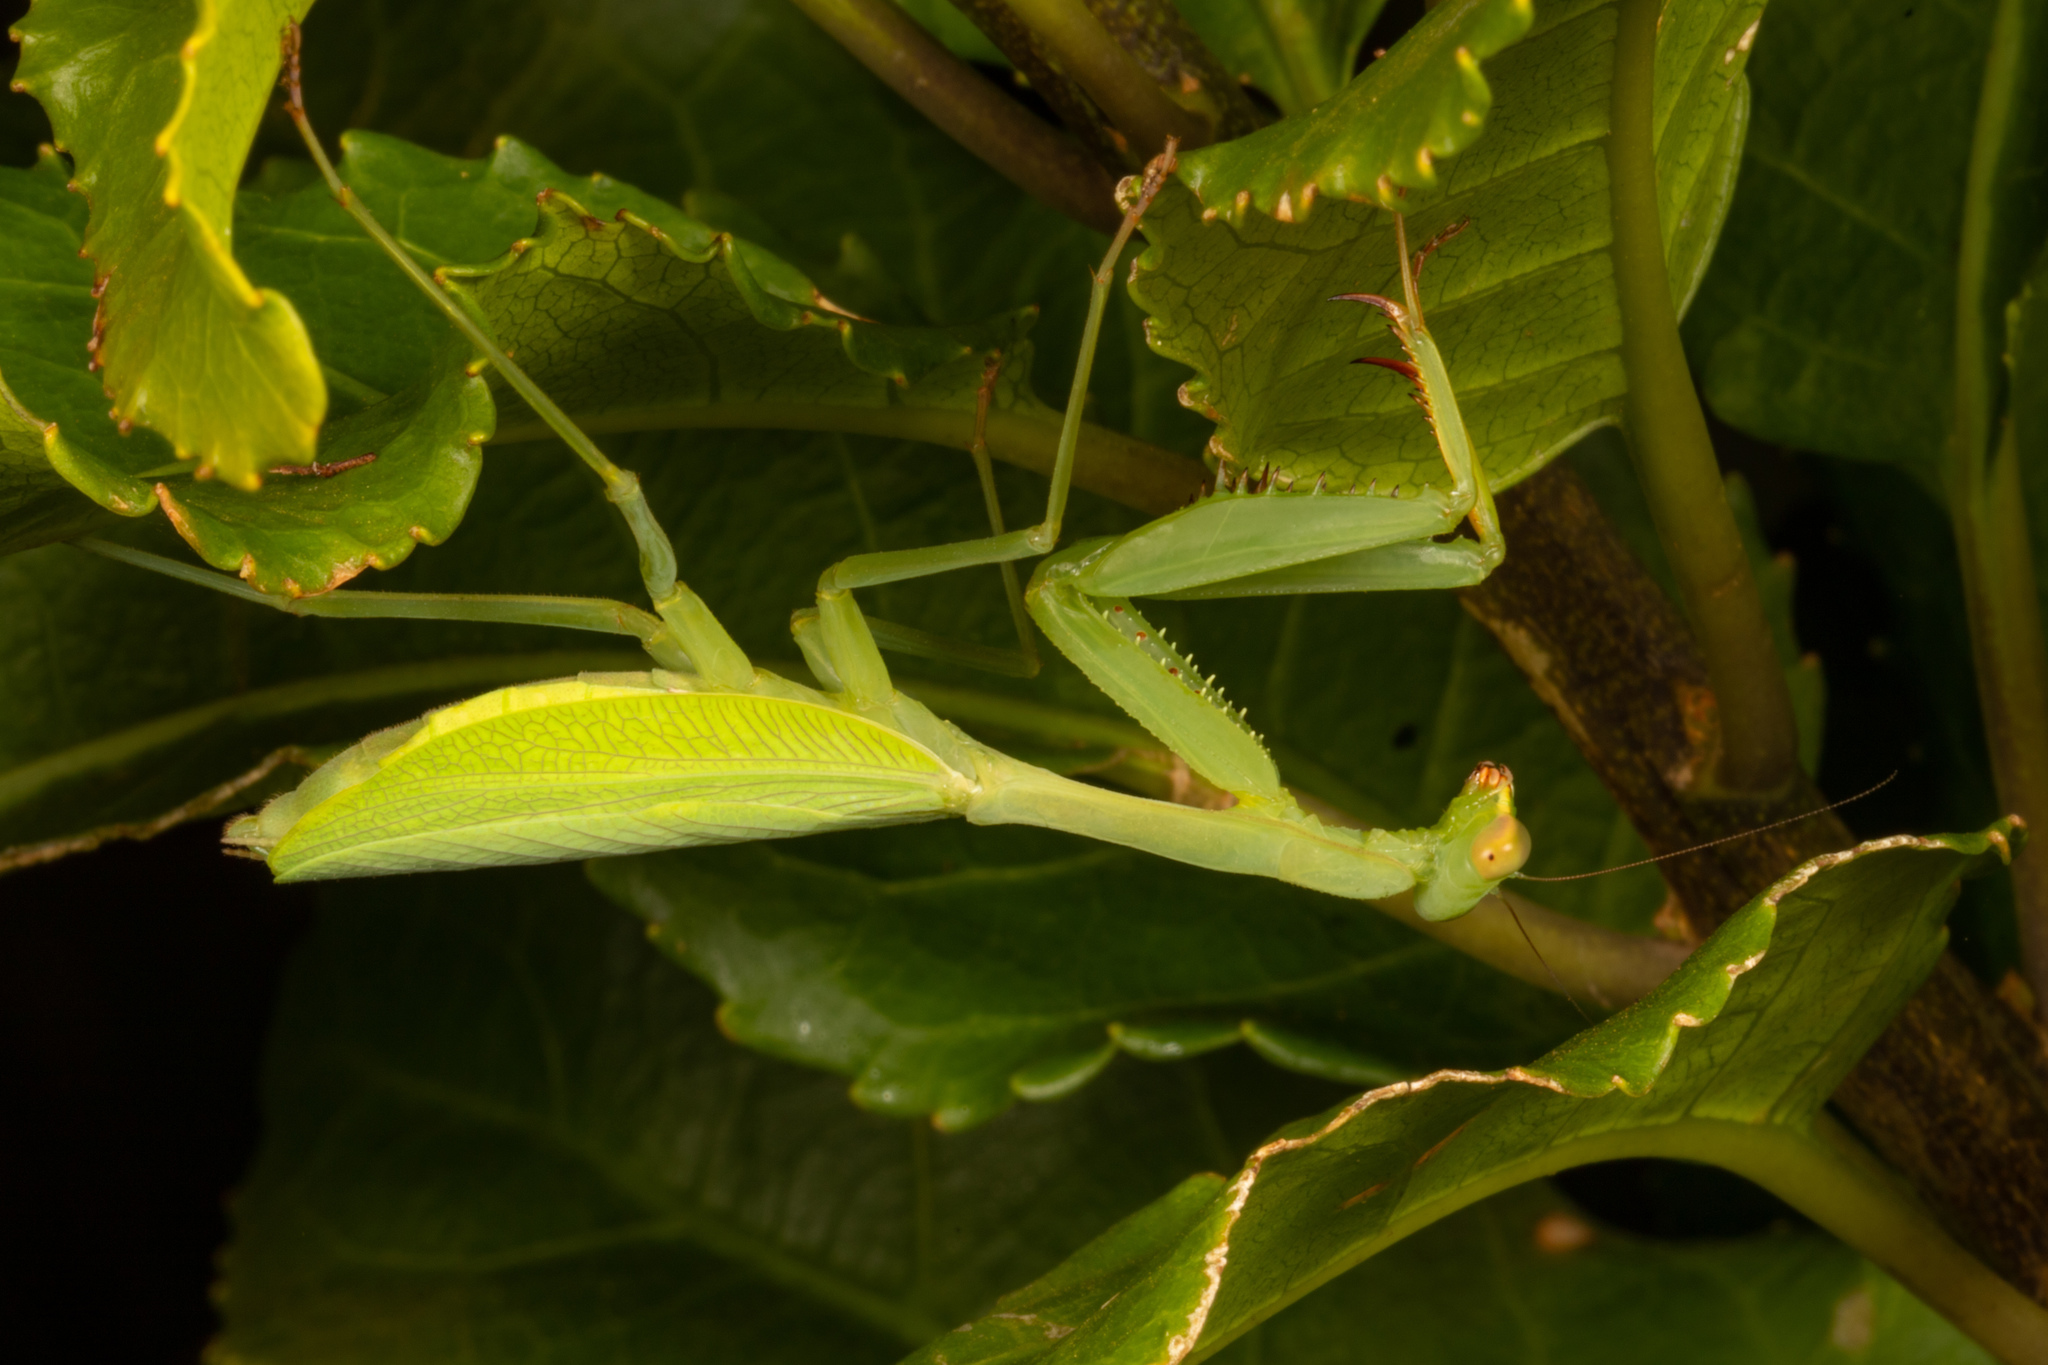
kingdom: Animalia
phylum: Arthropoda
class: Insecta
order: Mantodea
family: Miomantidae
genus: Miomantis
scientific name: Miomantis caffra
